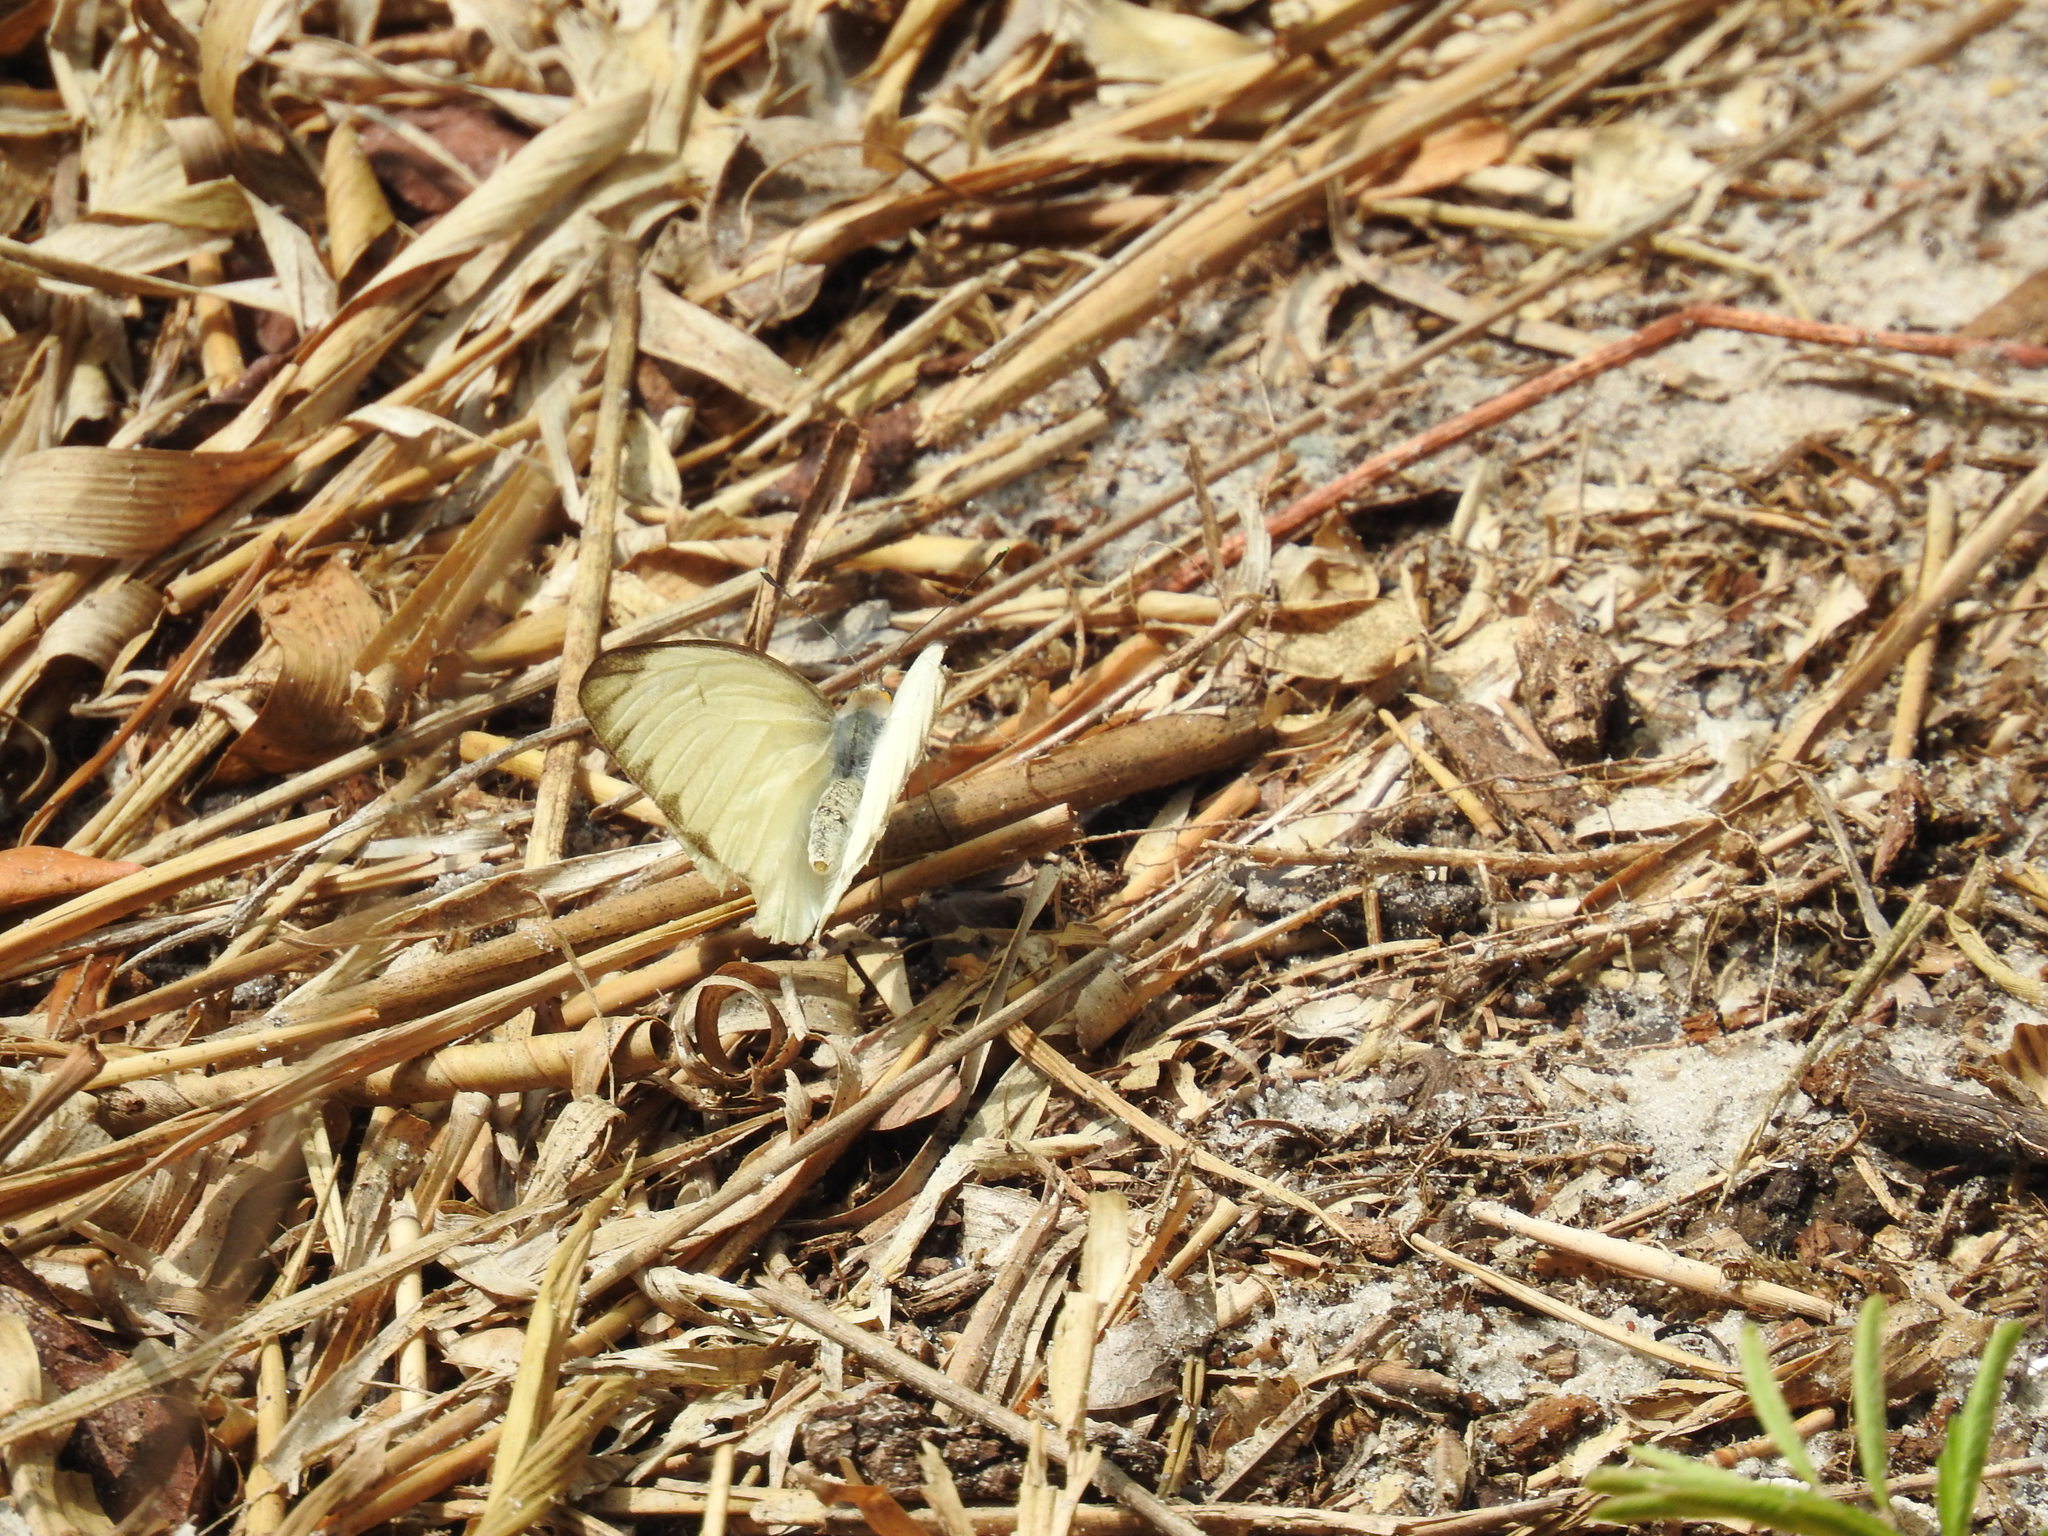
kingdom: Animalia
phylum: Arthropoda
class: Insecta
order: Lepidoptera
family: Pieridae
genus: Ascia
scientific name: Ascia monuste
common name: Great southern white
